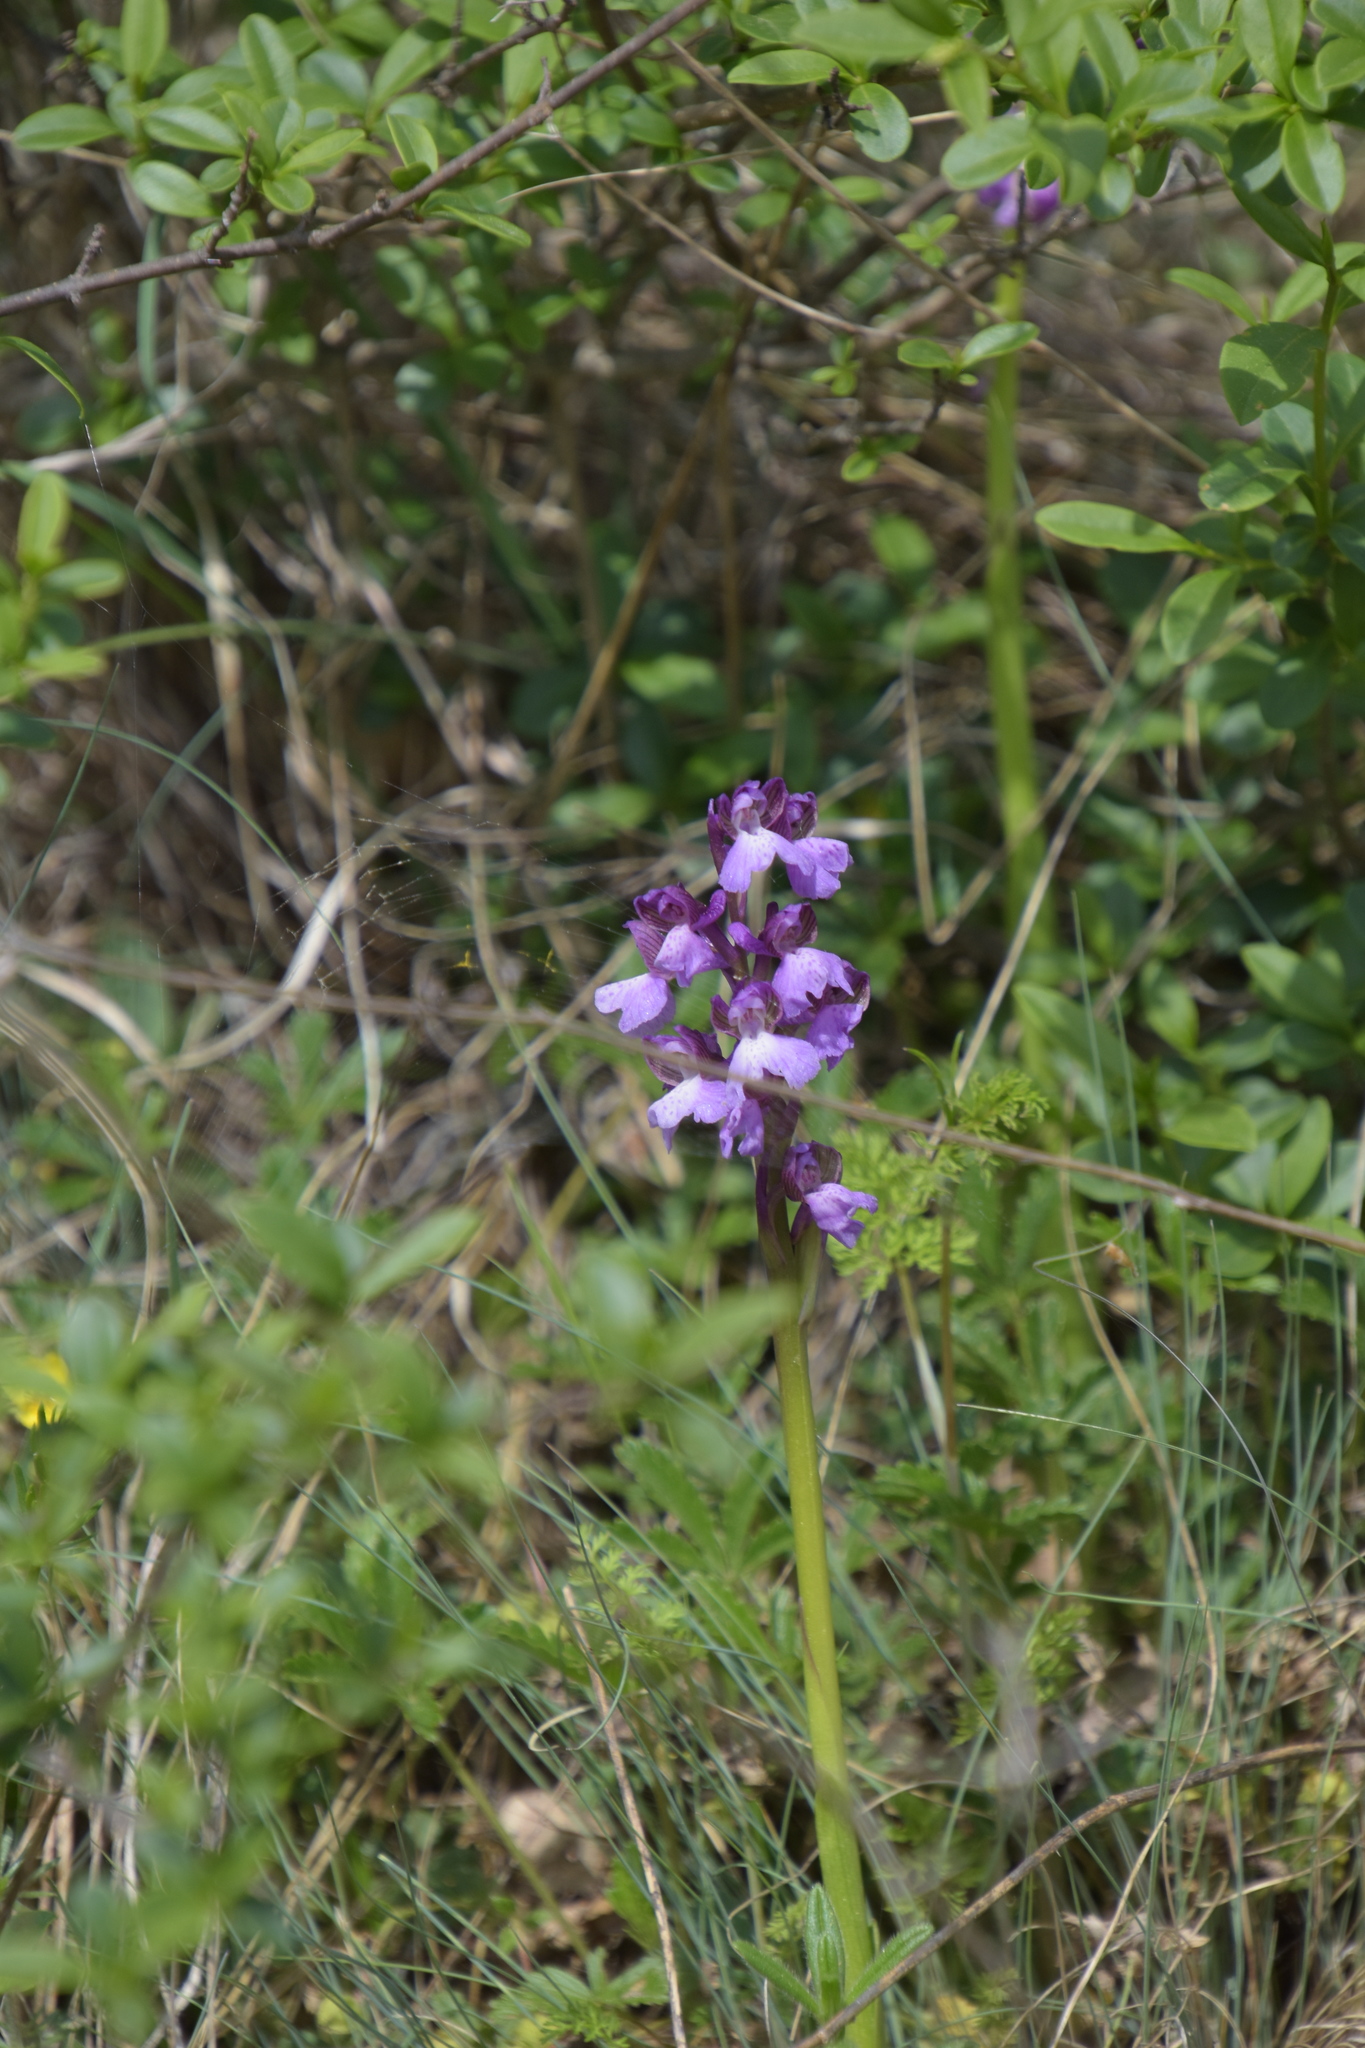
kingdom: Plantae
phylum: Tracheophyta
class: Liliopsida
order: Asparagales
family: Orchidaceae
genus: Anacamptis
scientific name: Anacamptis morio
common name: Green-winged orchid
